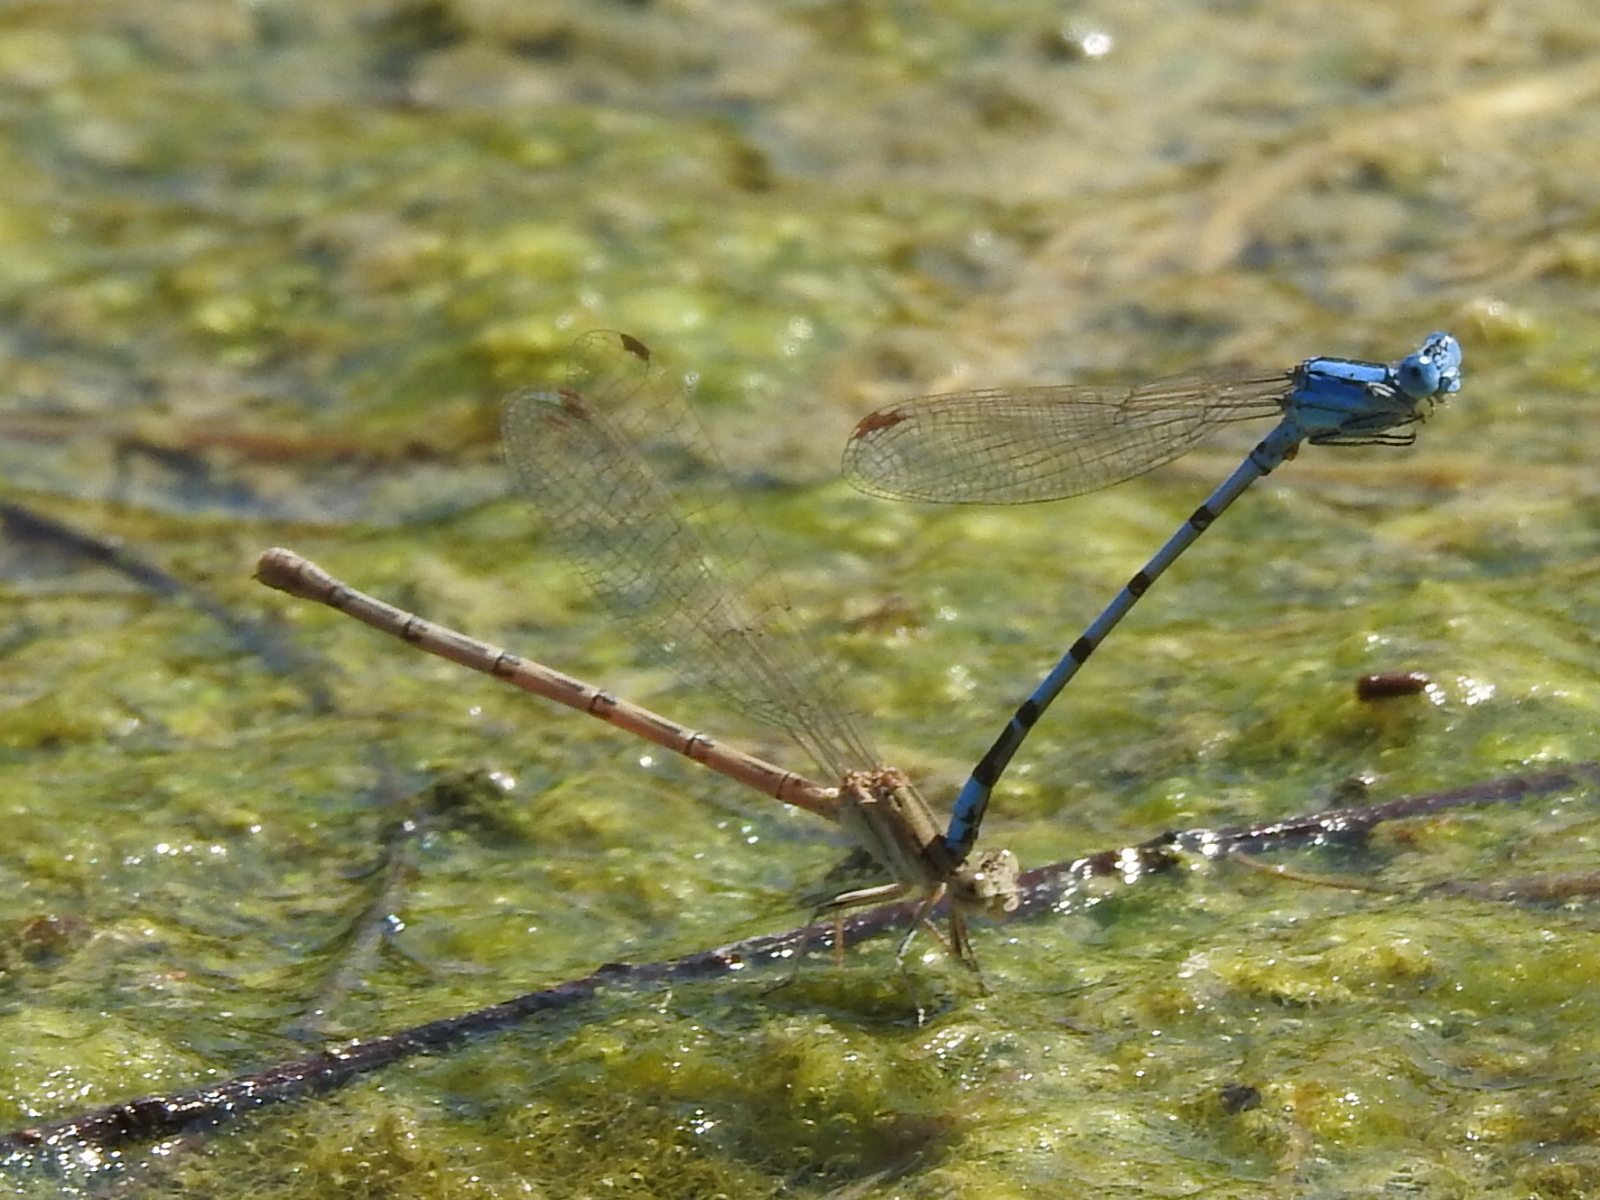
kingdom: Animalia
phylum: Arthropoda
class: Insecta
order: Odonata
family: Coenagrionidae
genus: Argia
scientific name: Argia nahuana
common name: Aztec dancer
